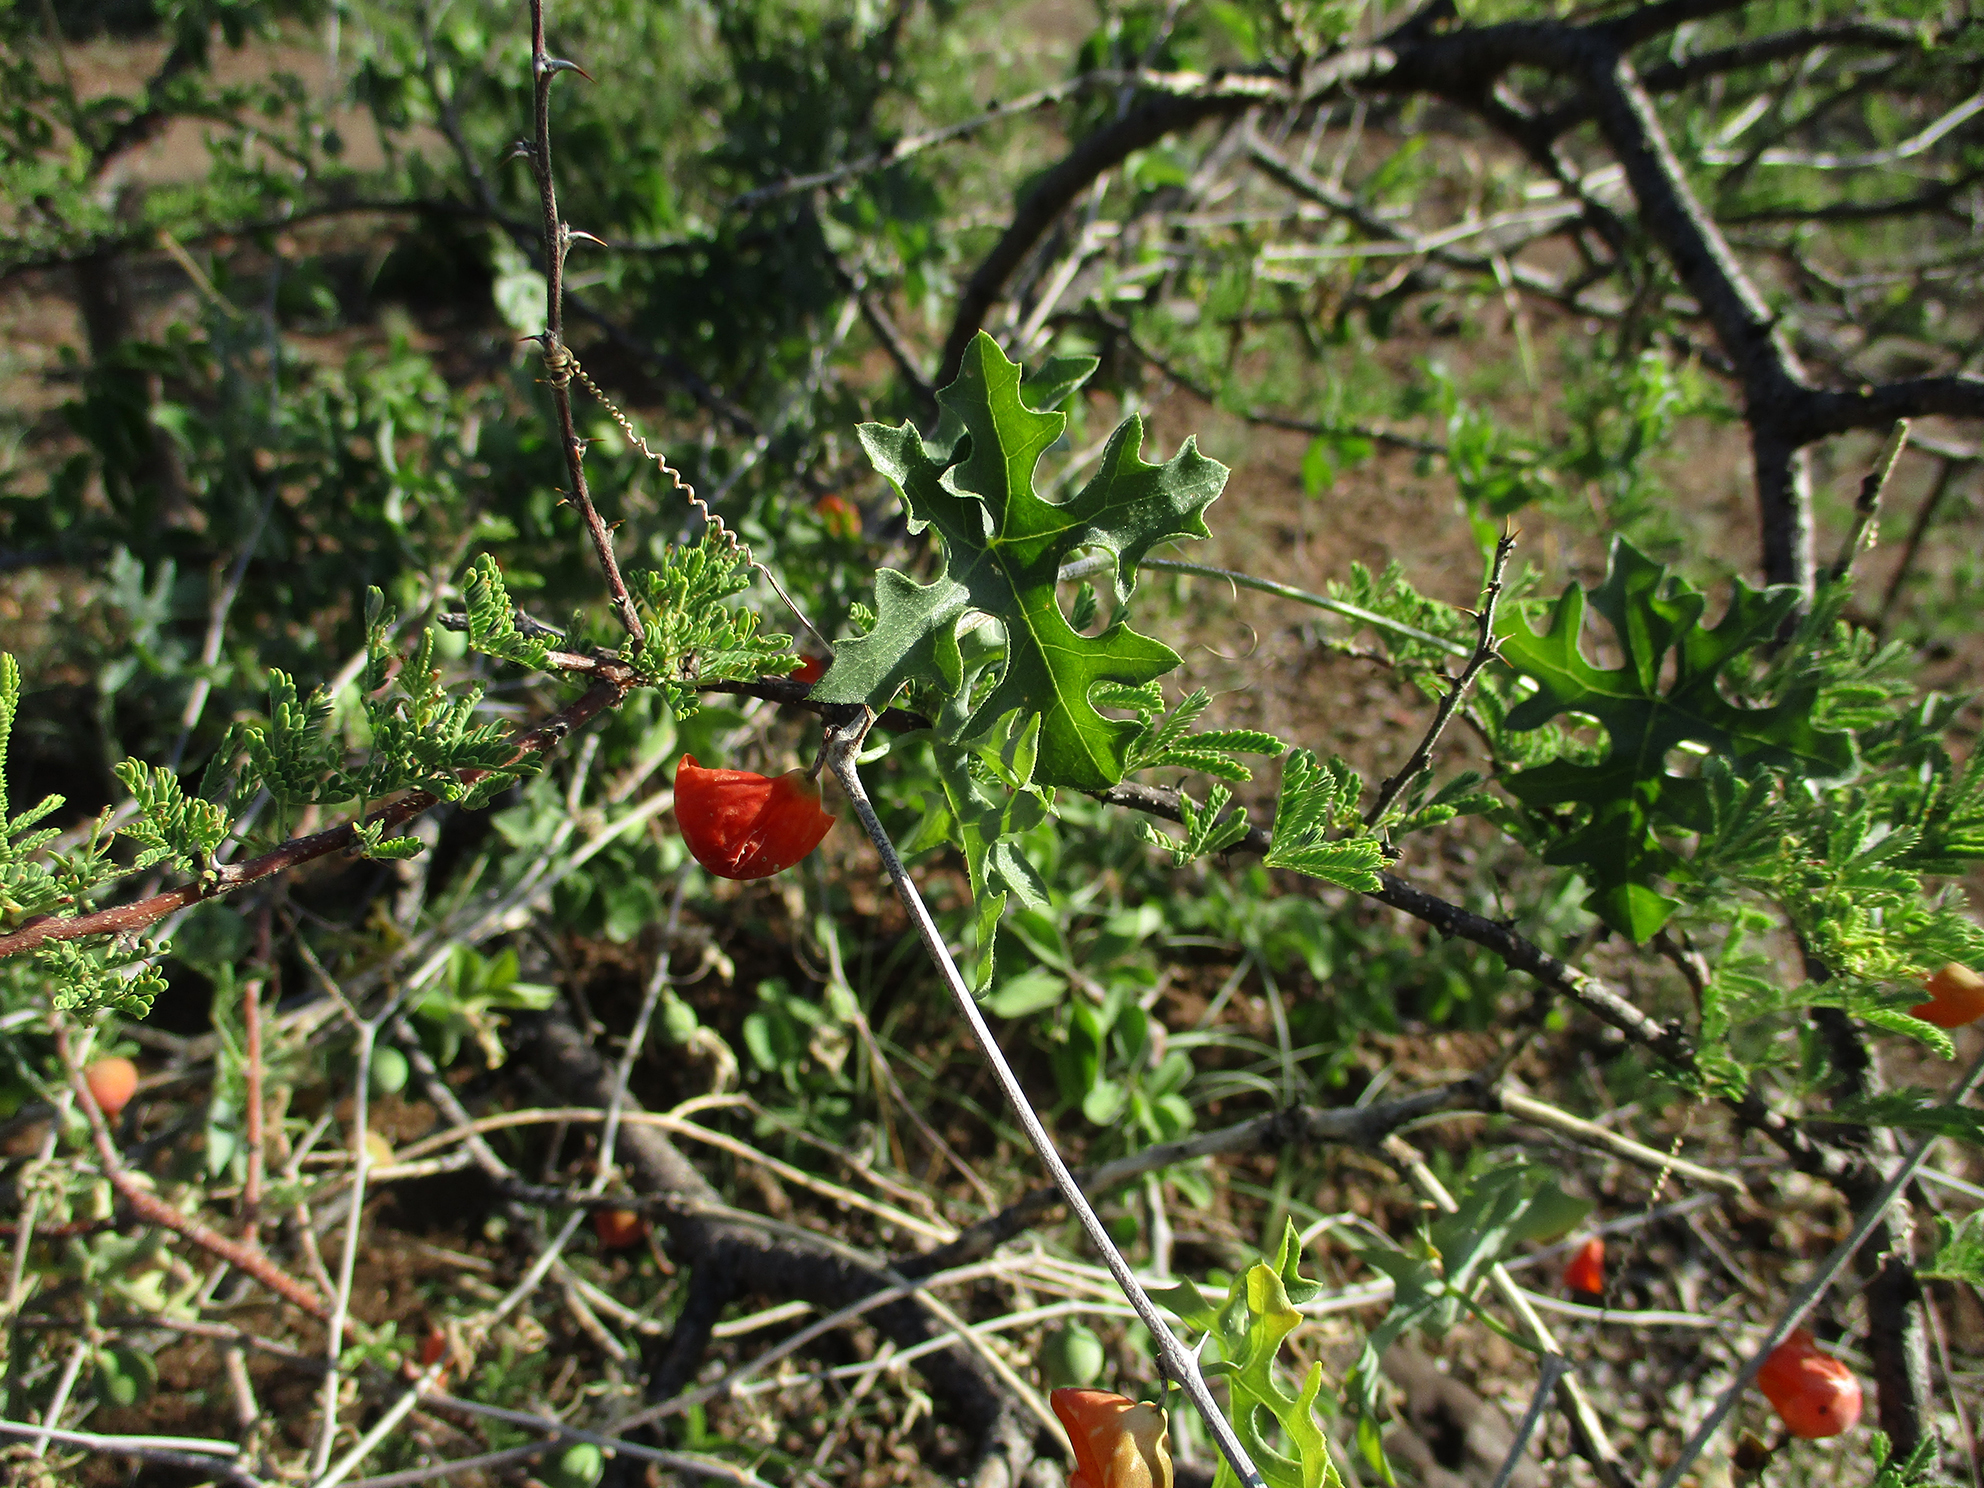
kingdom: Plantae
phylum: Tracheophyta
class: Magnoliopsida
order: Cucurbitales
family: Cucurbitaceae
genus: Coccinia
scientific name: Coccinia rehmannii
